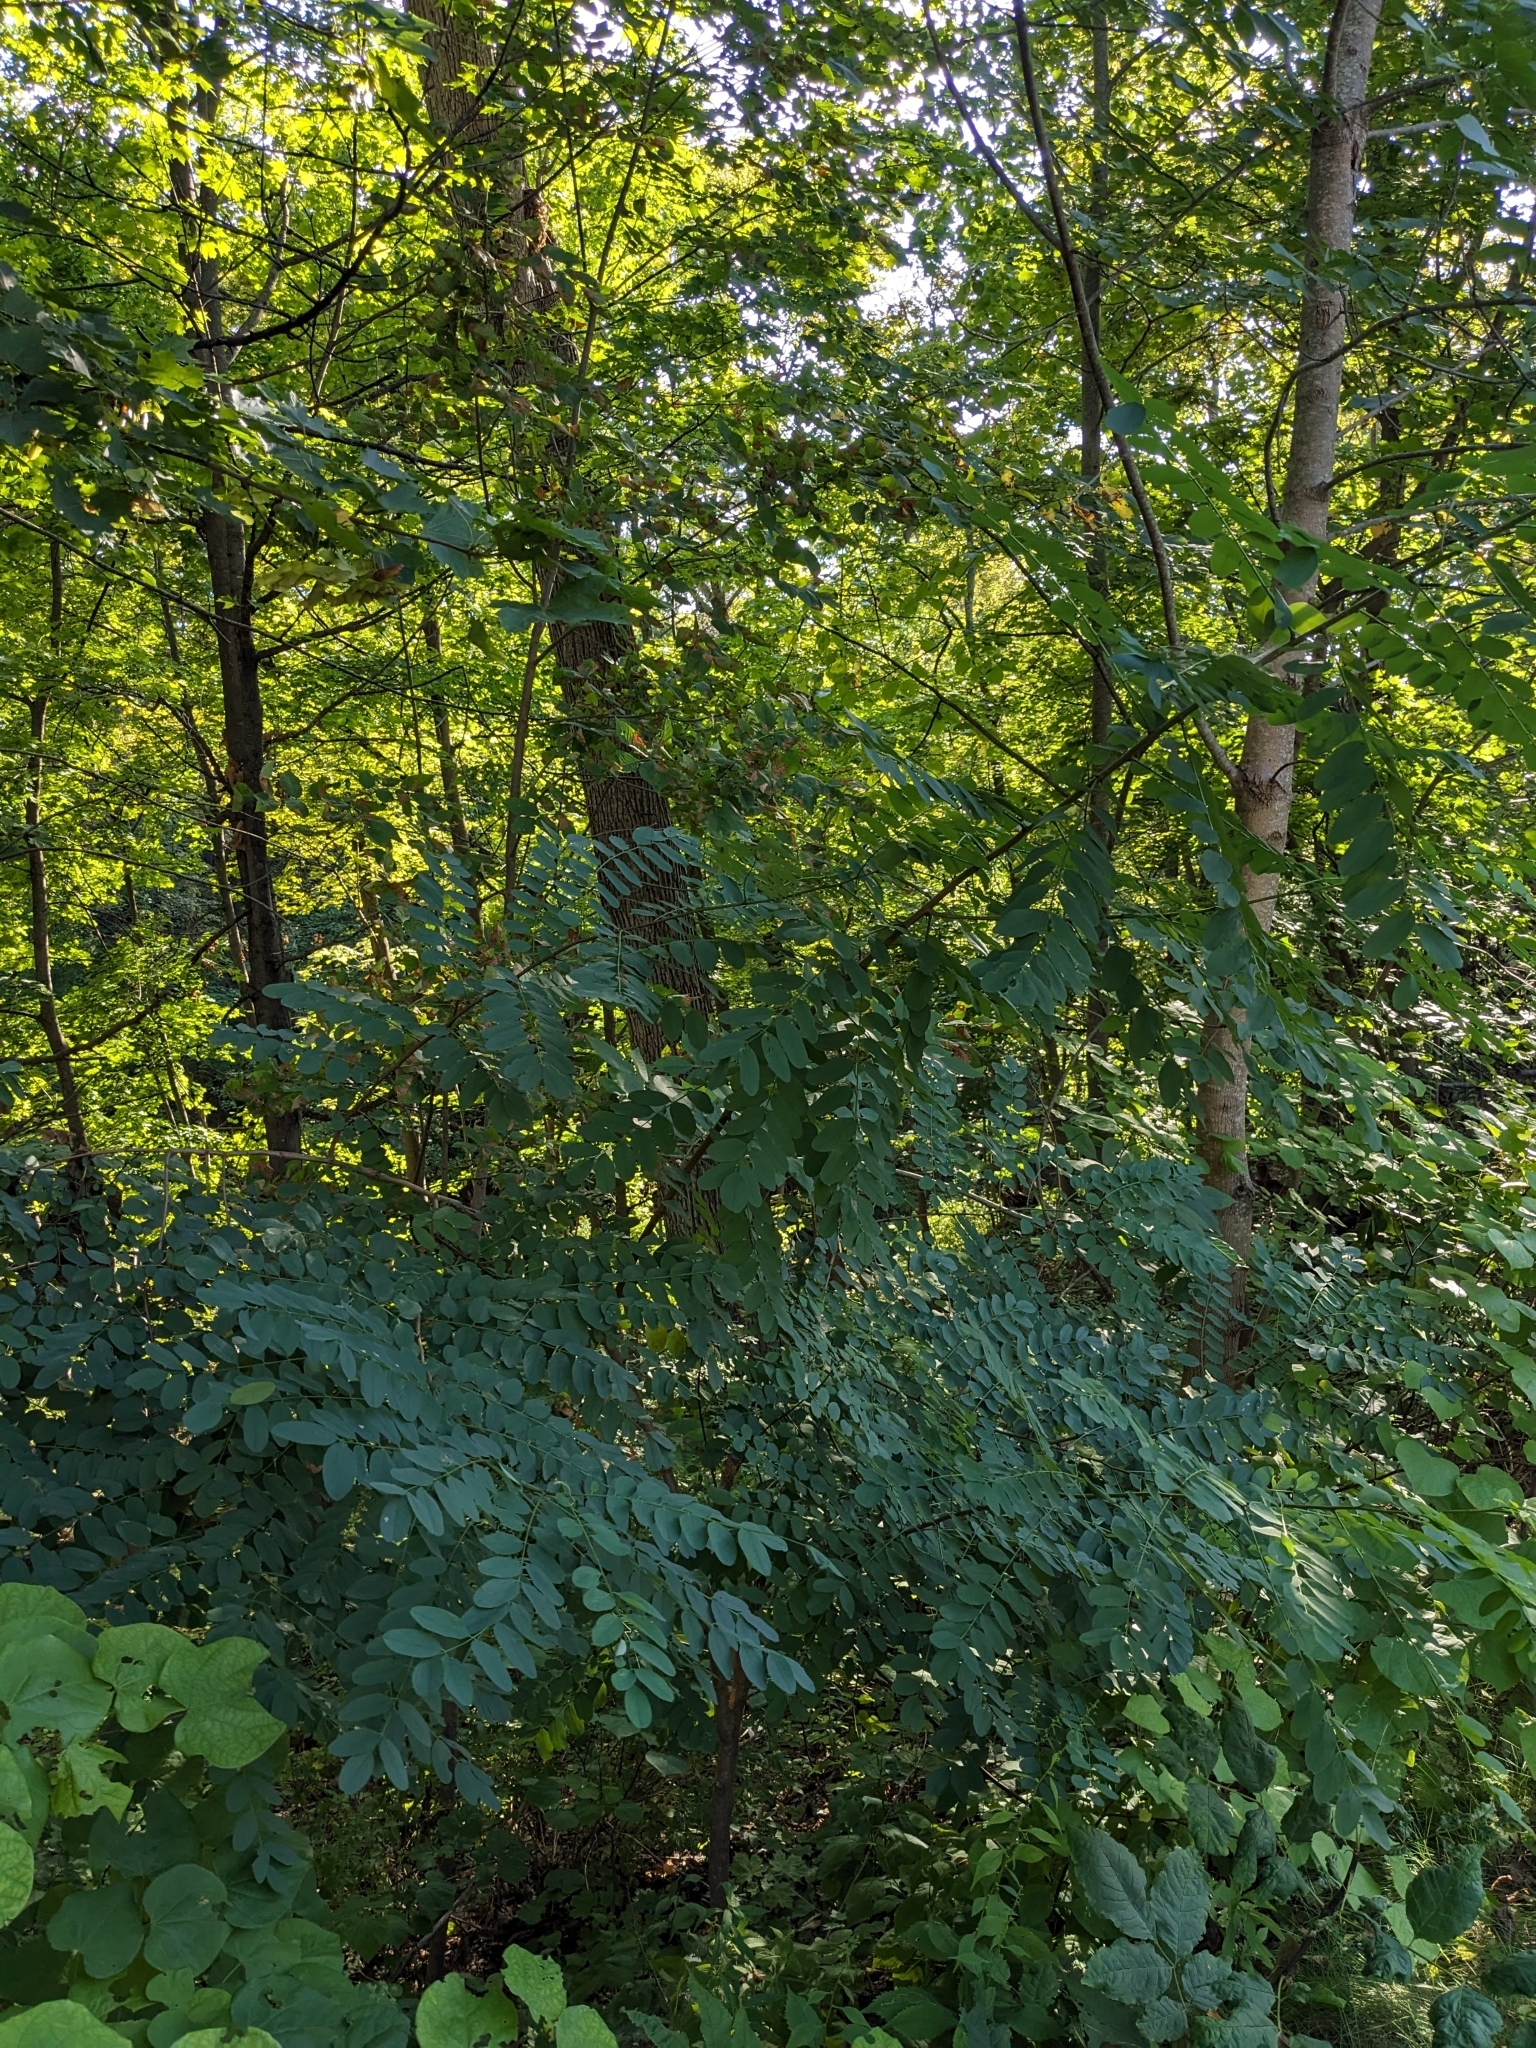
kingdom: Plantae
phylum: Tracheophyta
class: Magnoliopsida
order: Fabales
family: Fabaceae
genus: Robinia
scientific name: Robinia pseudoacacia
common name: Black locust
